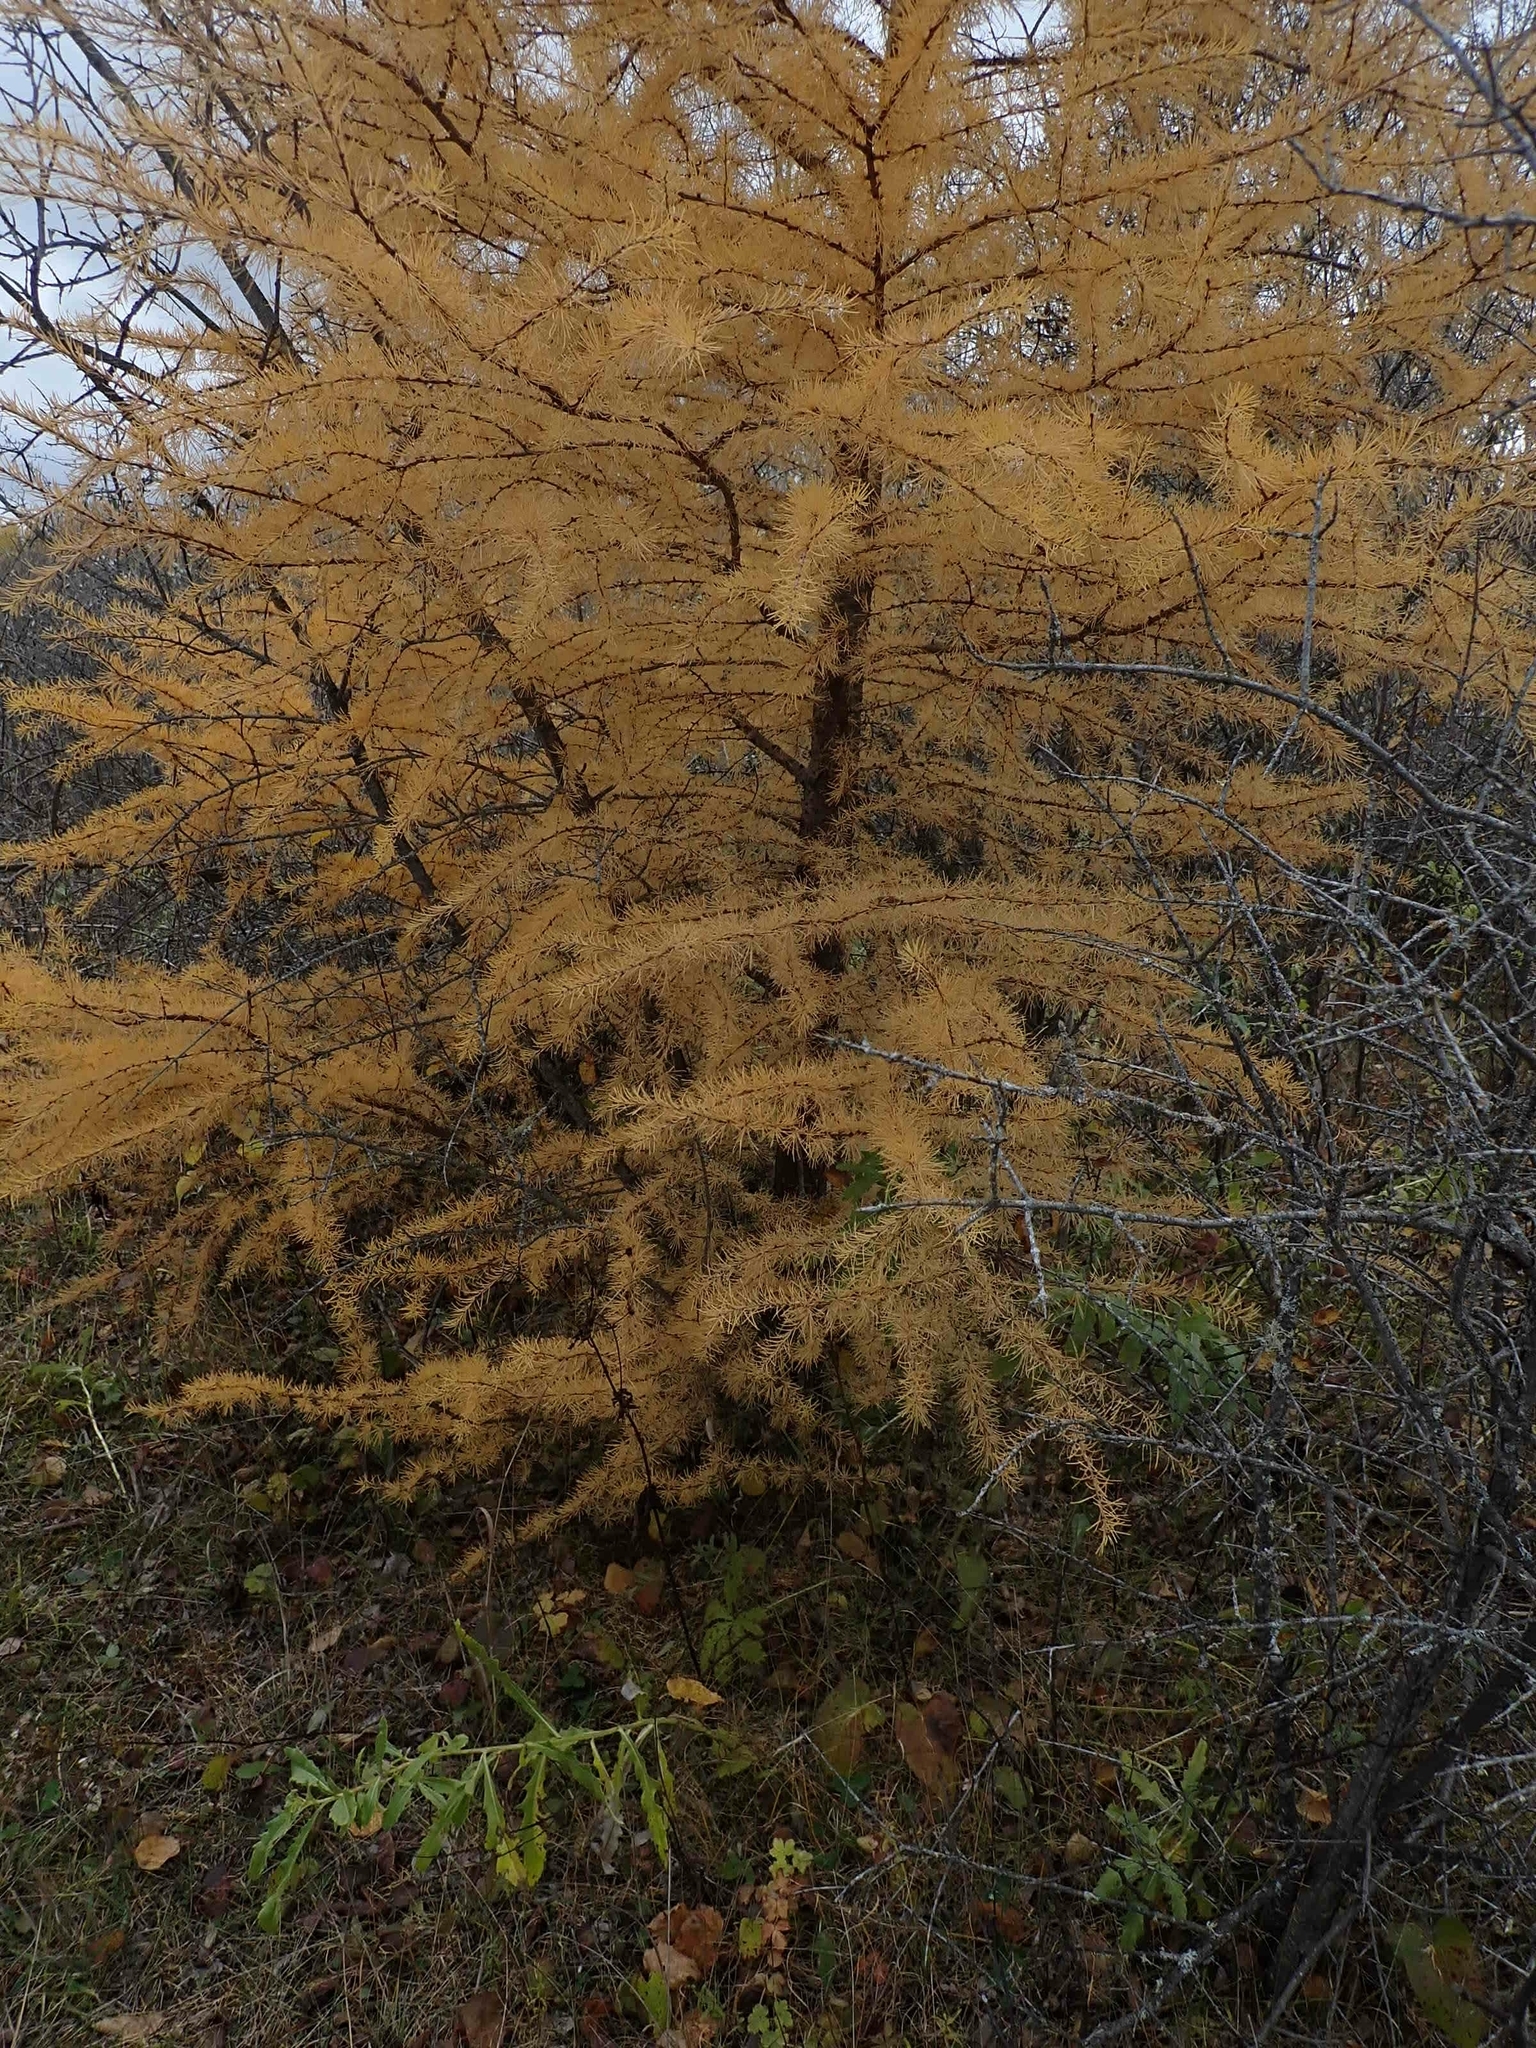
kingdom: Plantae
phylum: Tracheophyta
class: Pinopsida
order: Pinales
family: Pinaceae
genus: Larix
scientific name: Larix laricina
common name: American larch
